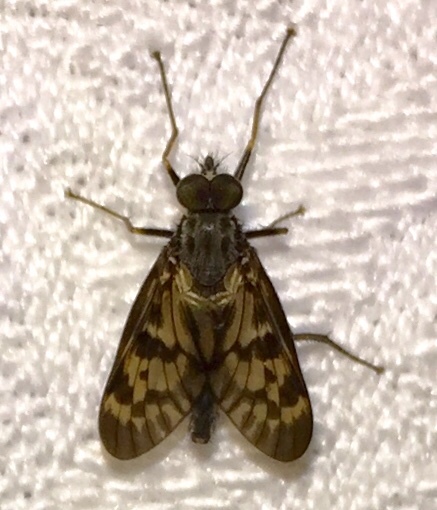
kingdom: Animalia
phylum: Arthropoda
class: Insecta
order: Diptera
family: Rhagionidae
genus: Rhagio
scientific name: Rhagio punctipennis
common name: Lesser variegated snipe fly
